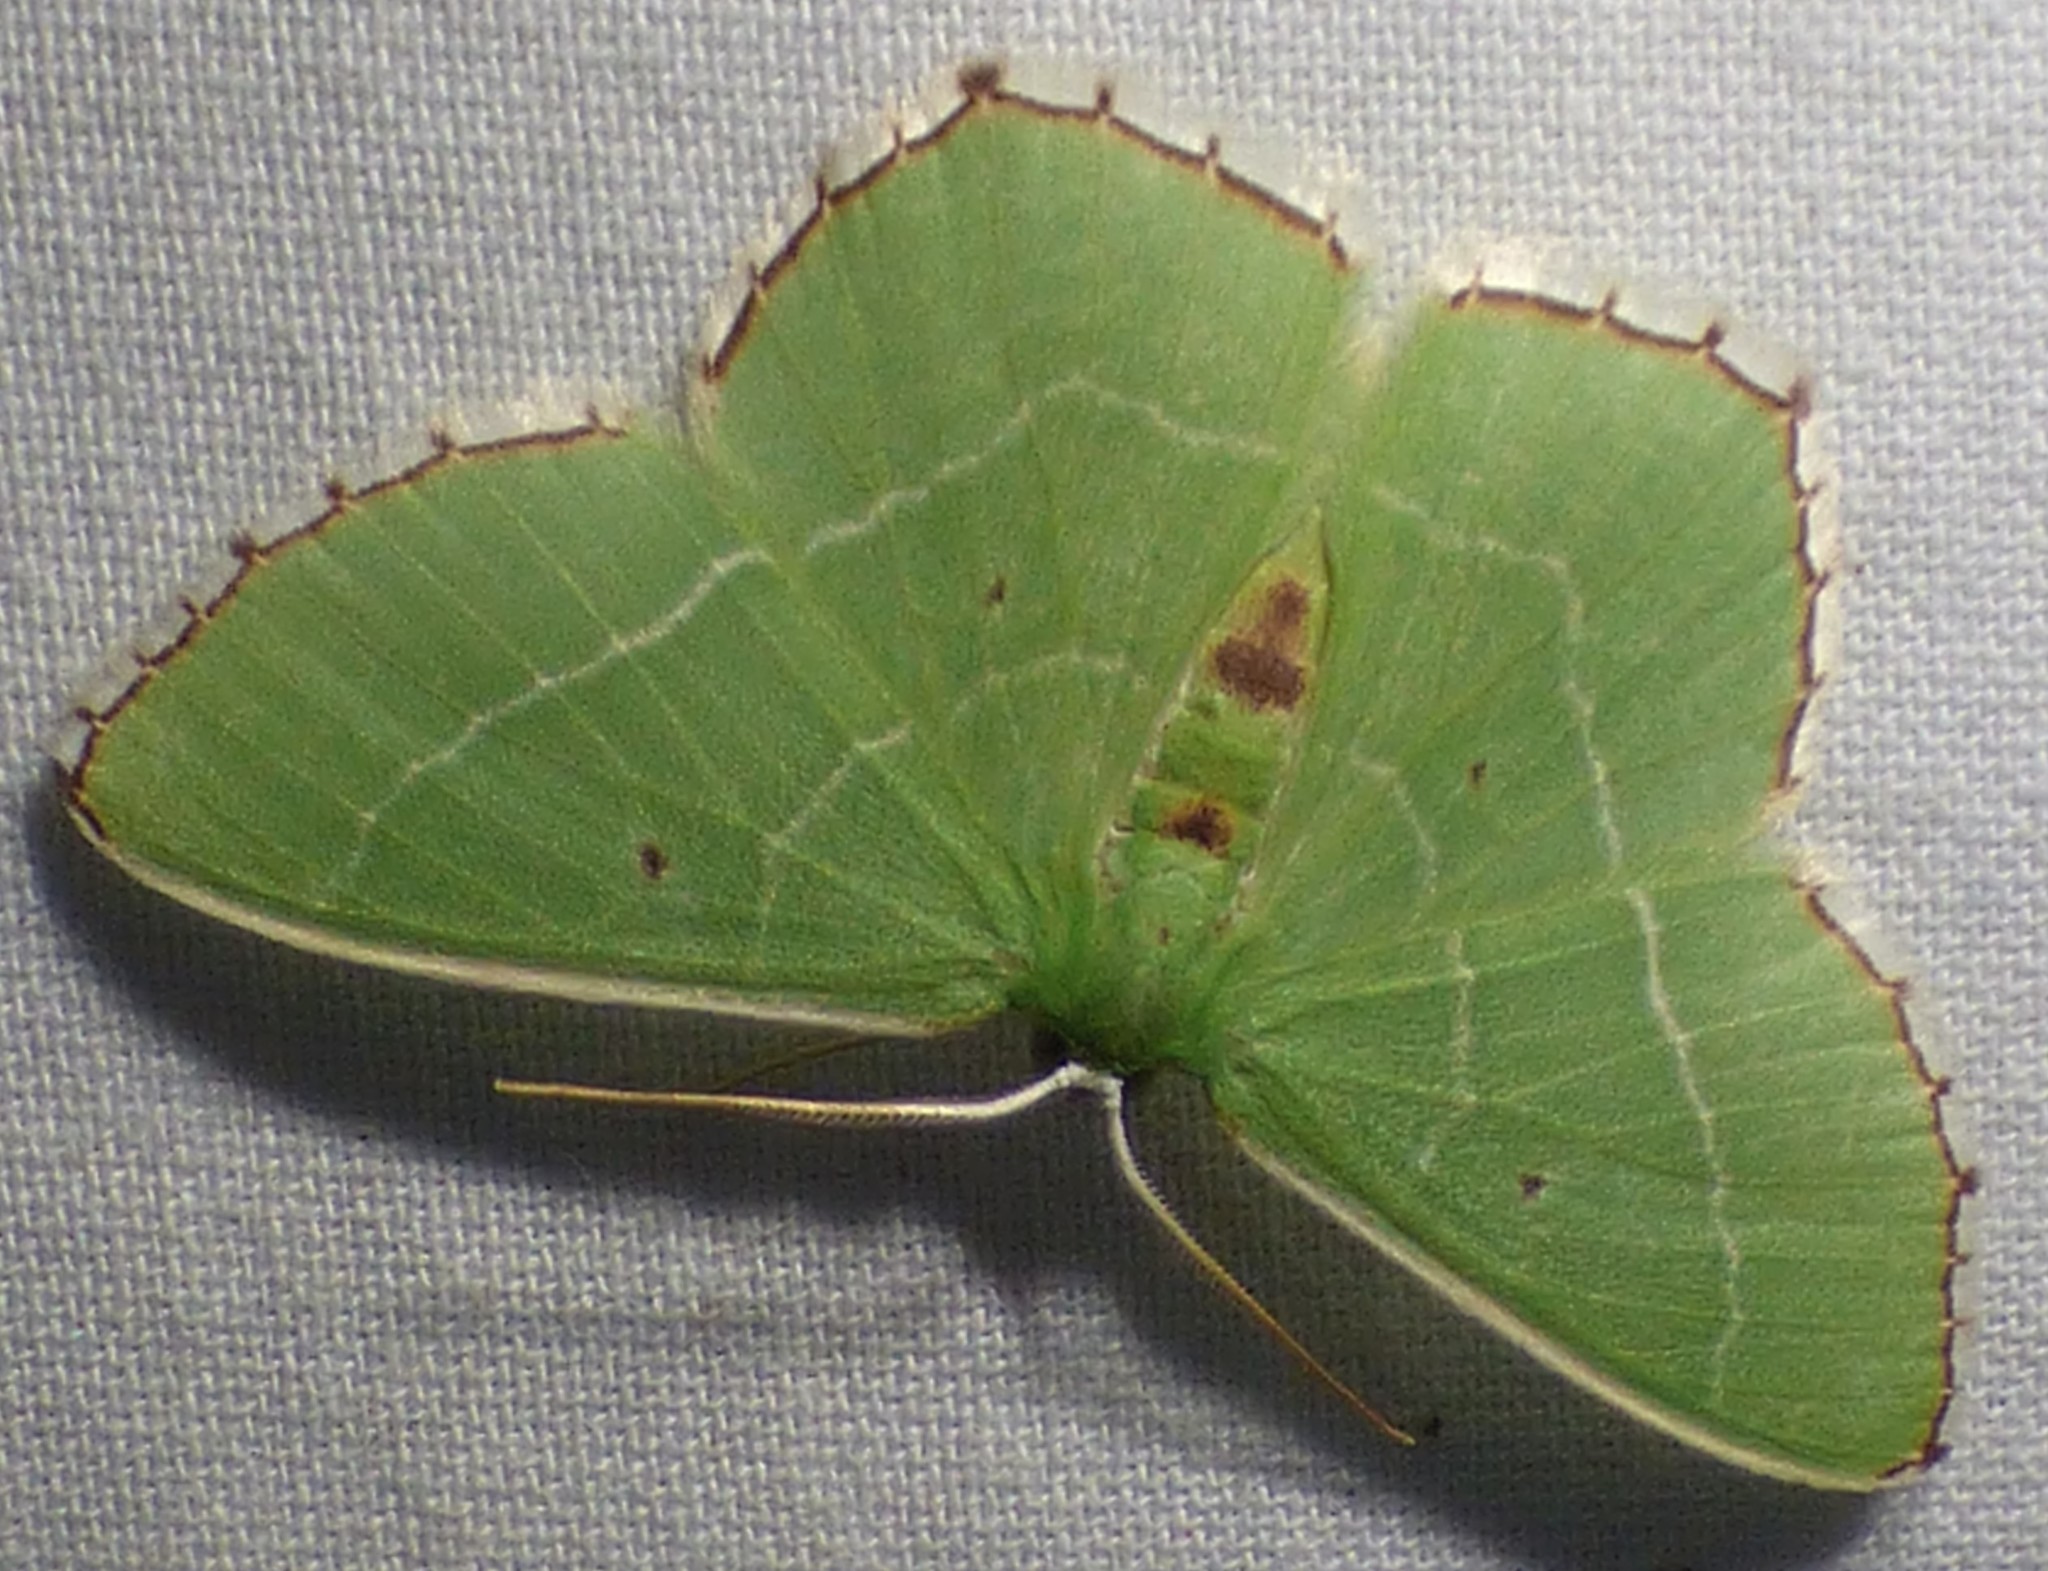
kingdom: Animalia
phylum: Arthropoda
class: Insecta
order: Lepidoptera
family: Geometridae
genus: Nemoria
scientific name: Nemoria saturiba
